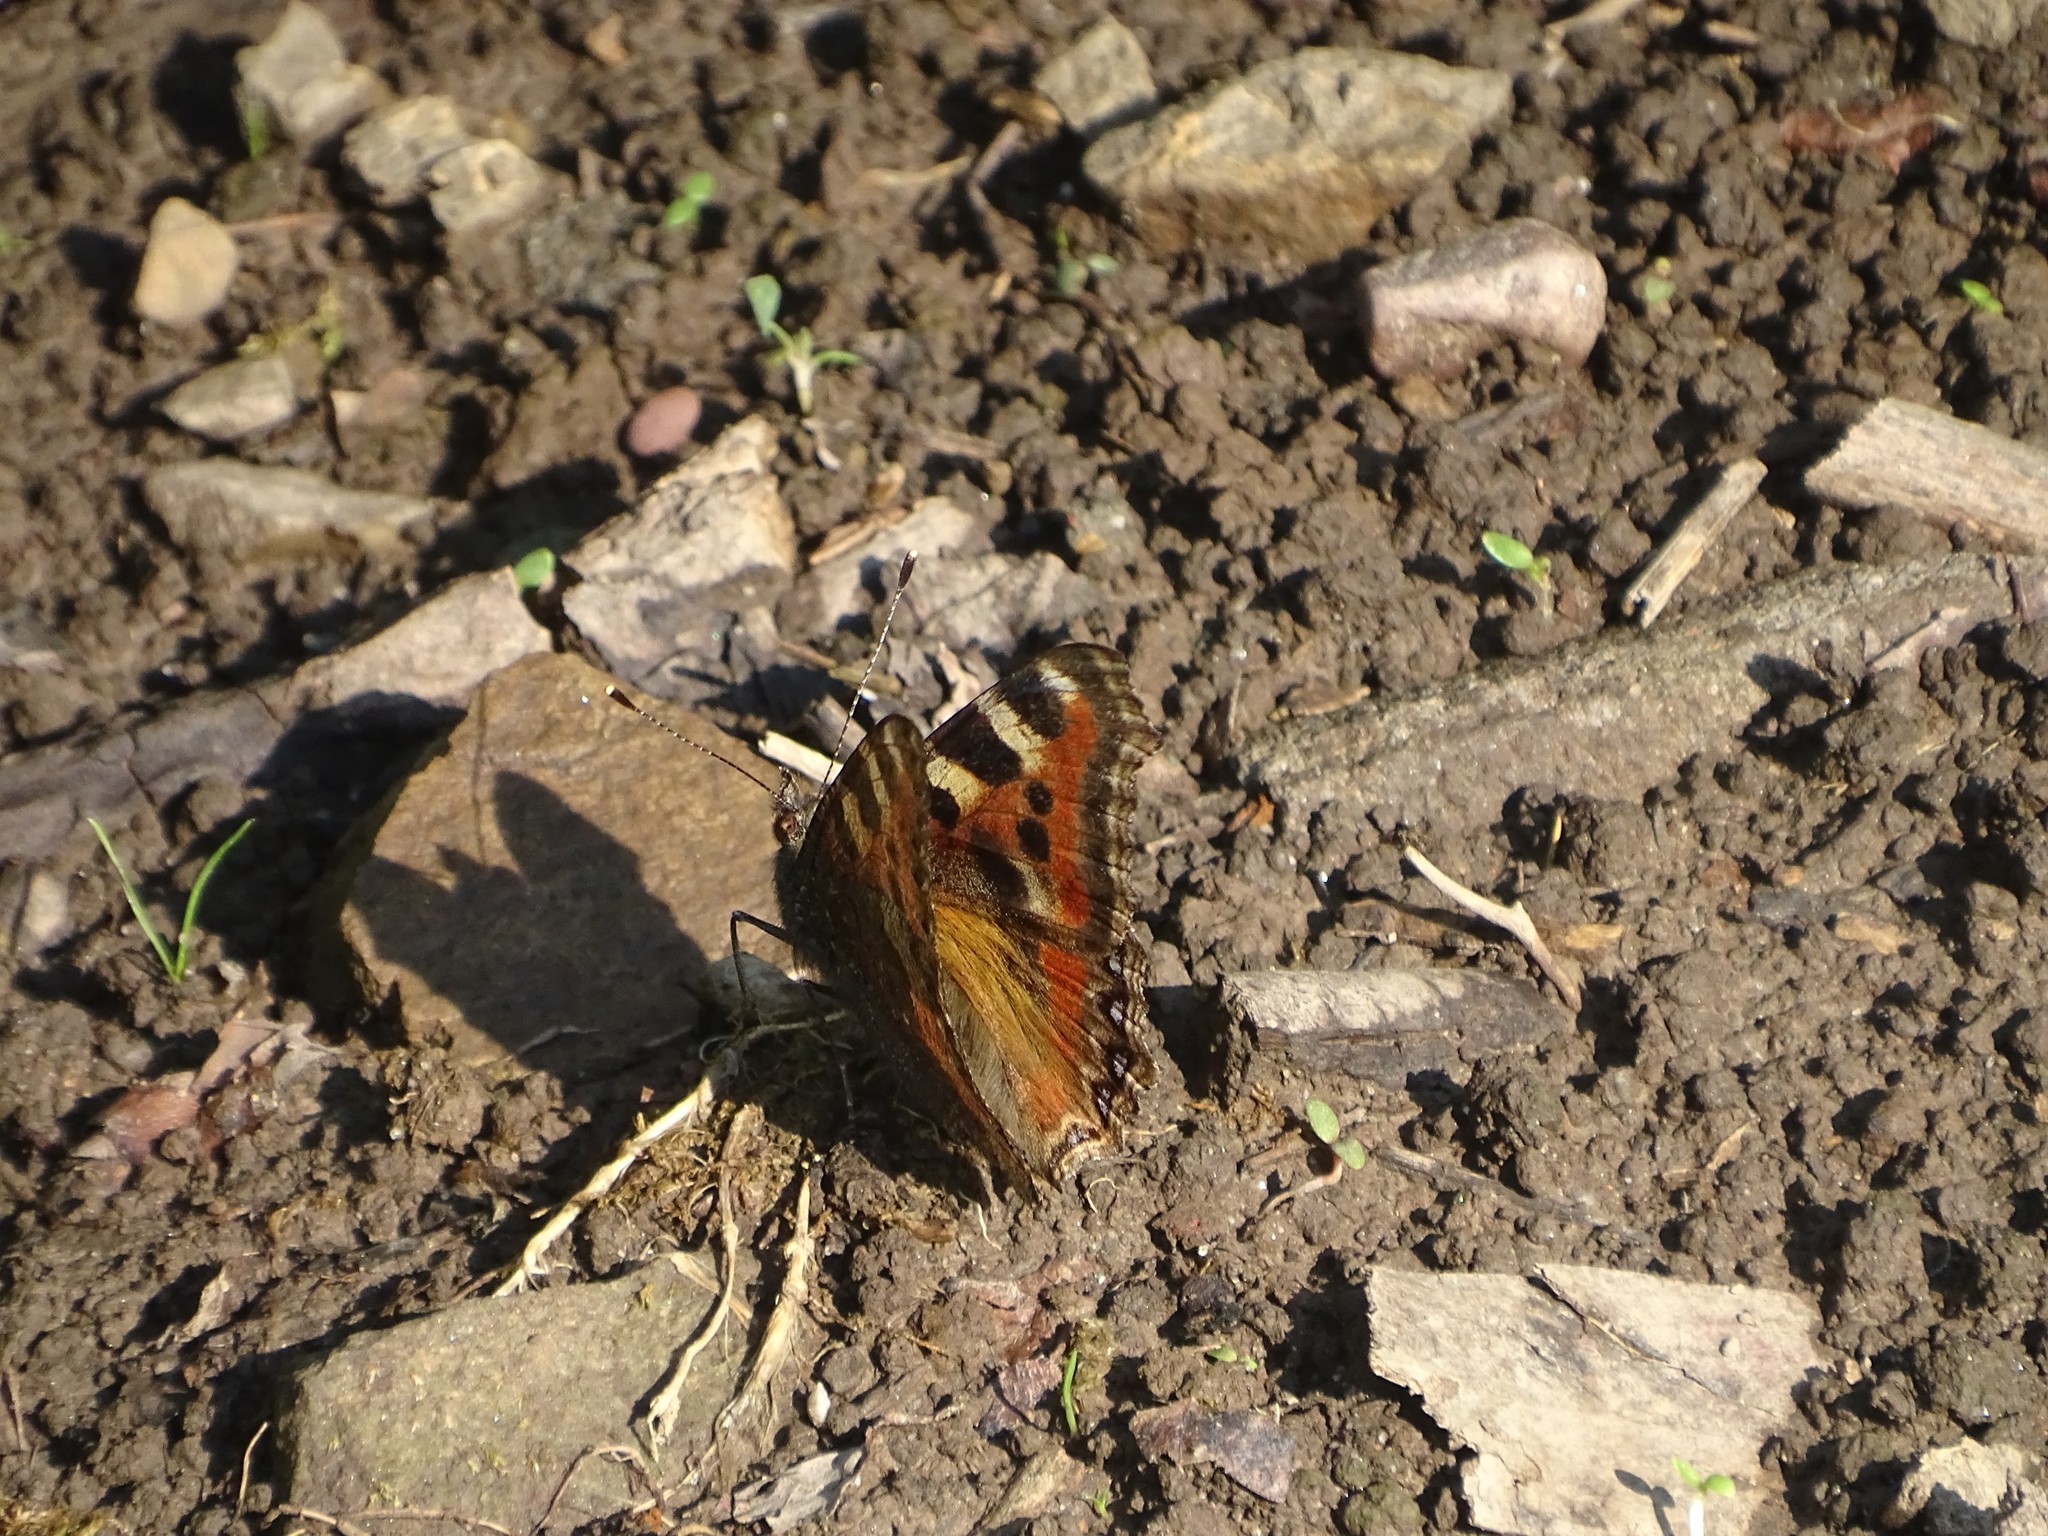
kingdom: Animalia
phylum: Arthropoda
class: Insecta
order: Lepidoptera
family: Nymphalidae
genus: Aglais
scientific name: Aglais caschmirensis
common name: Indian tortoiseshell
